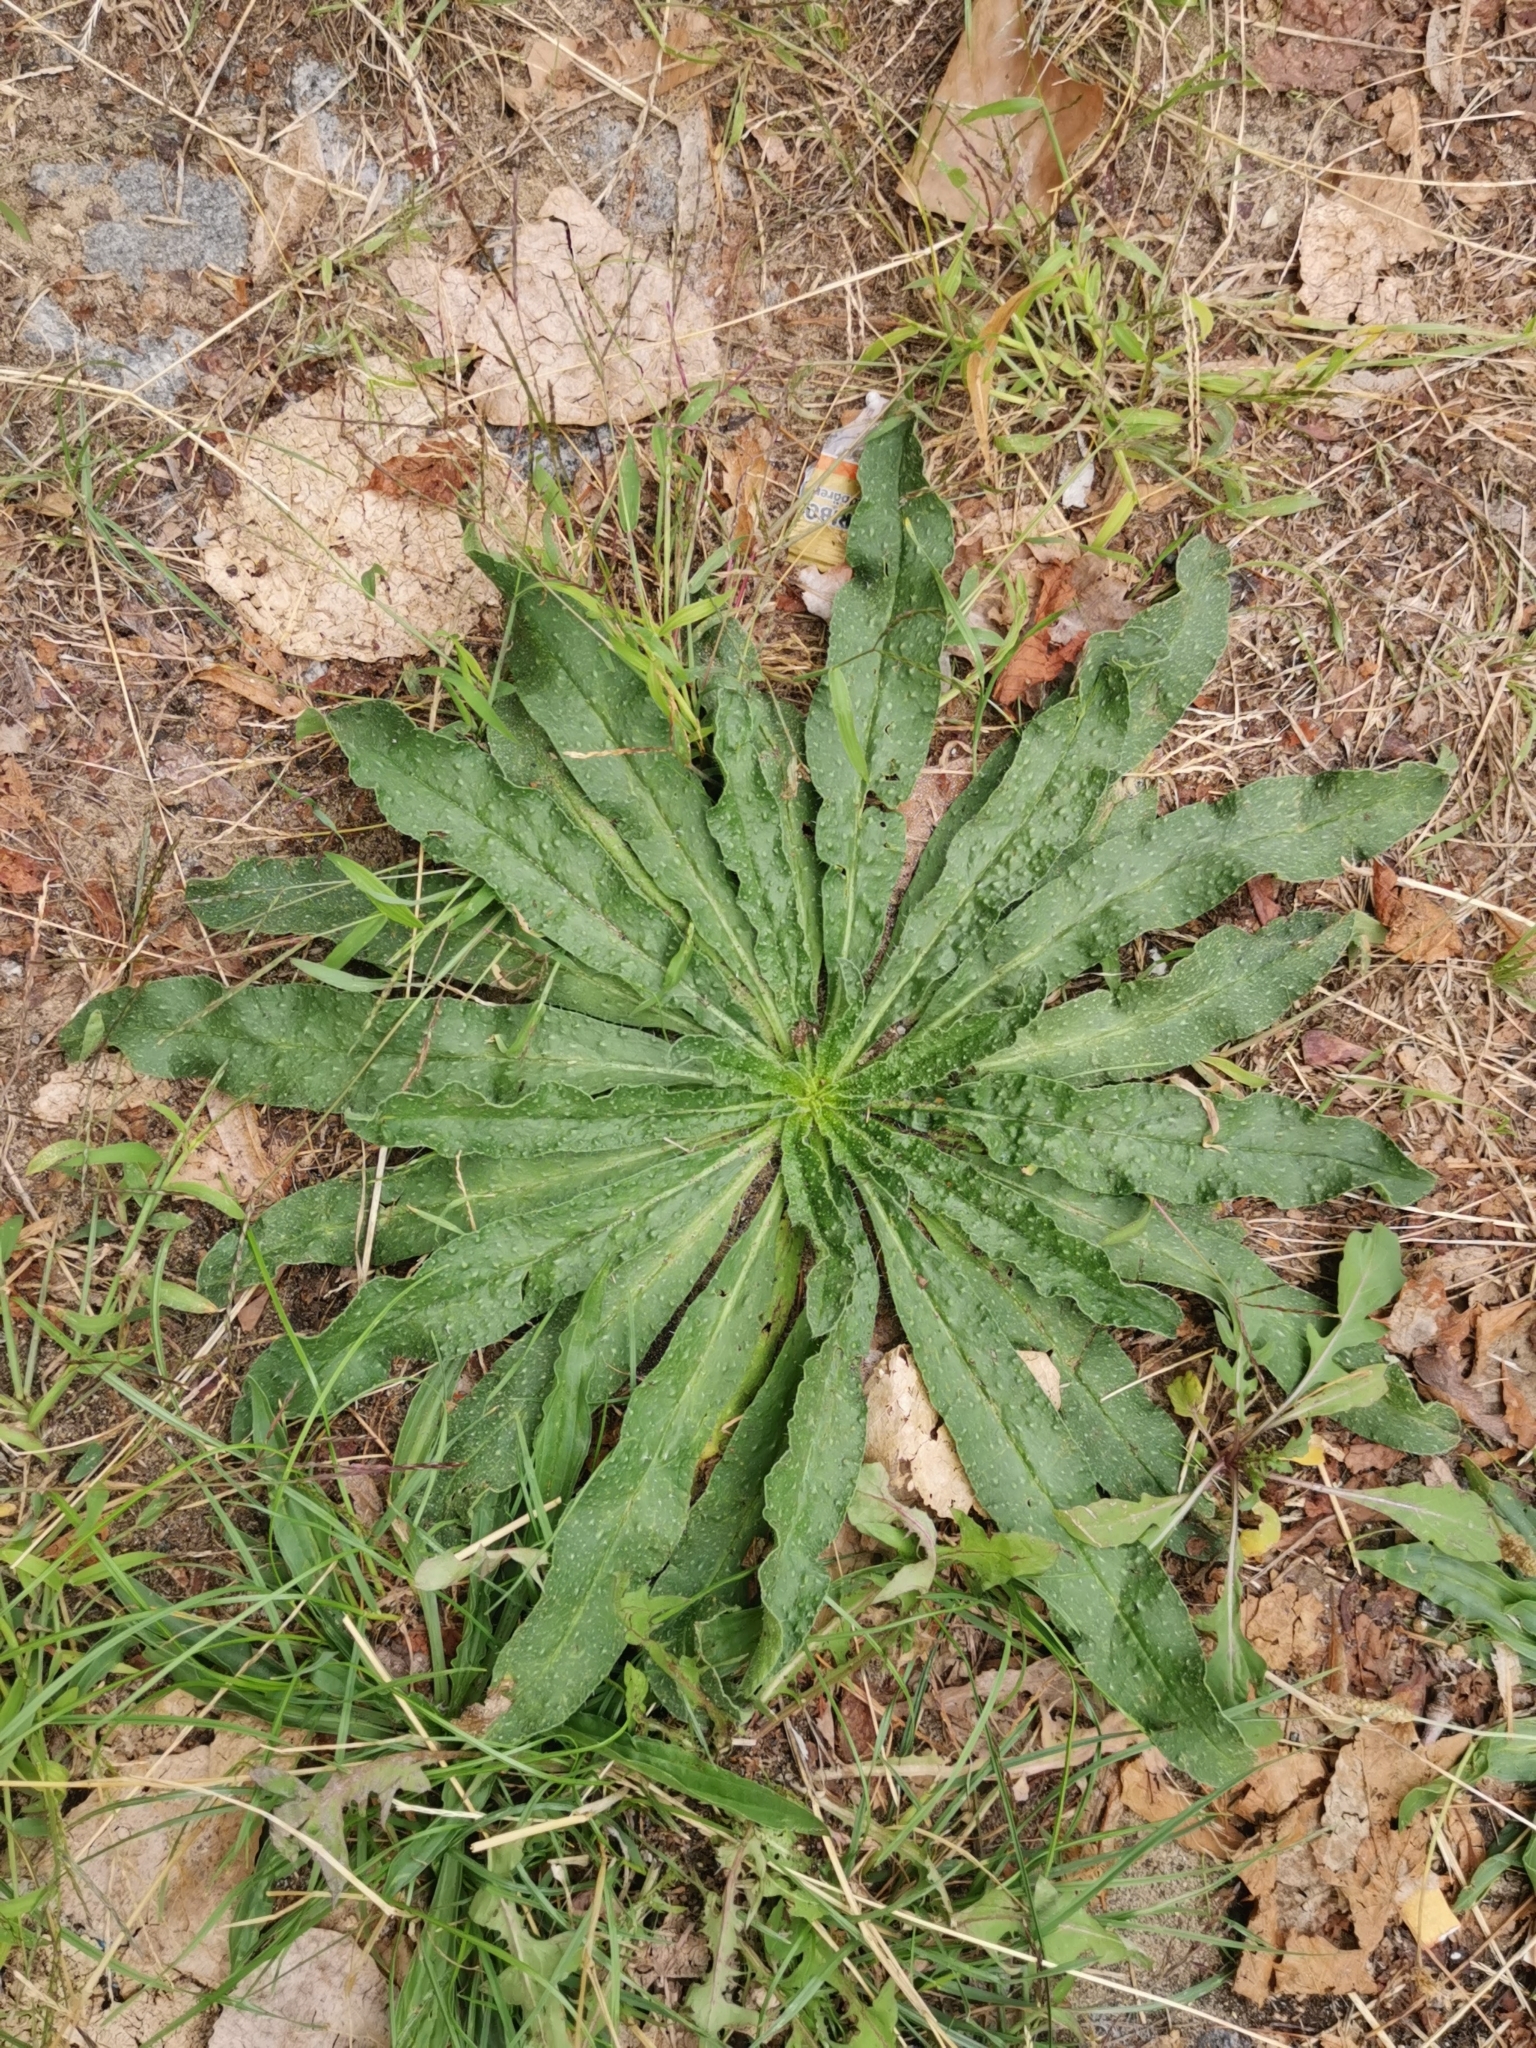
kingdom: Plantae
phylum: Tracheophyta
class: Magnoliopsida
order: Boraginales
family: Boraginaceae
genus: Echium
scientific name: Echium vulgare
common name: Common viper's bugloss
